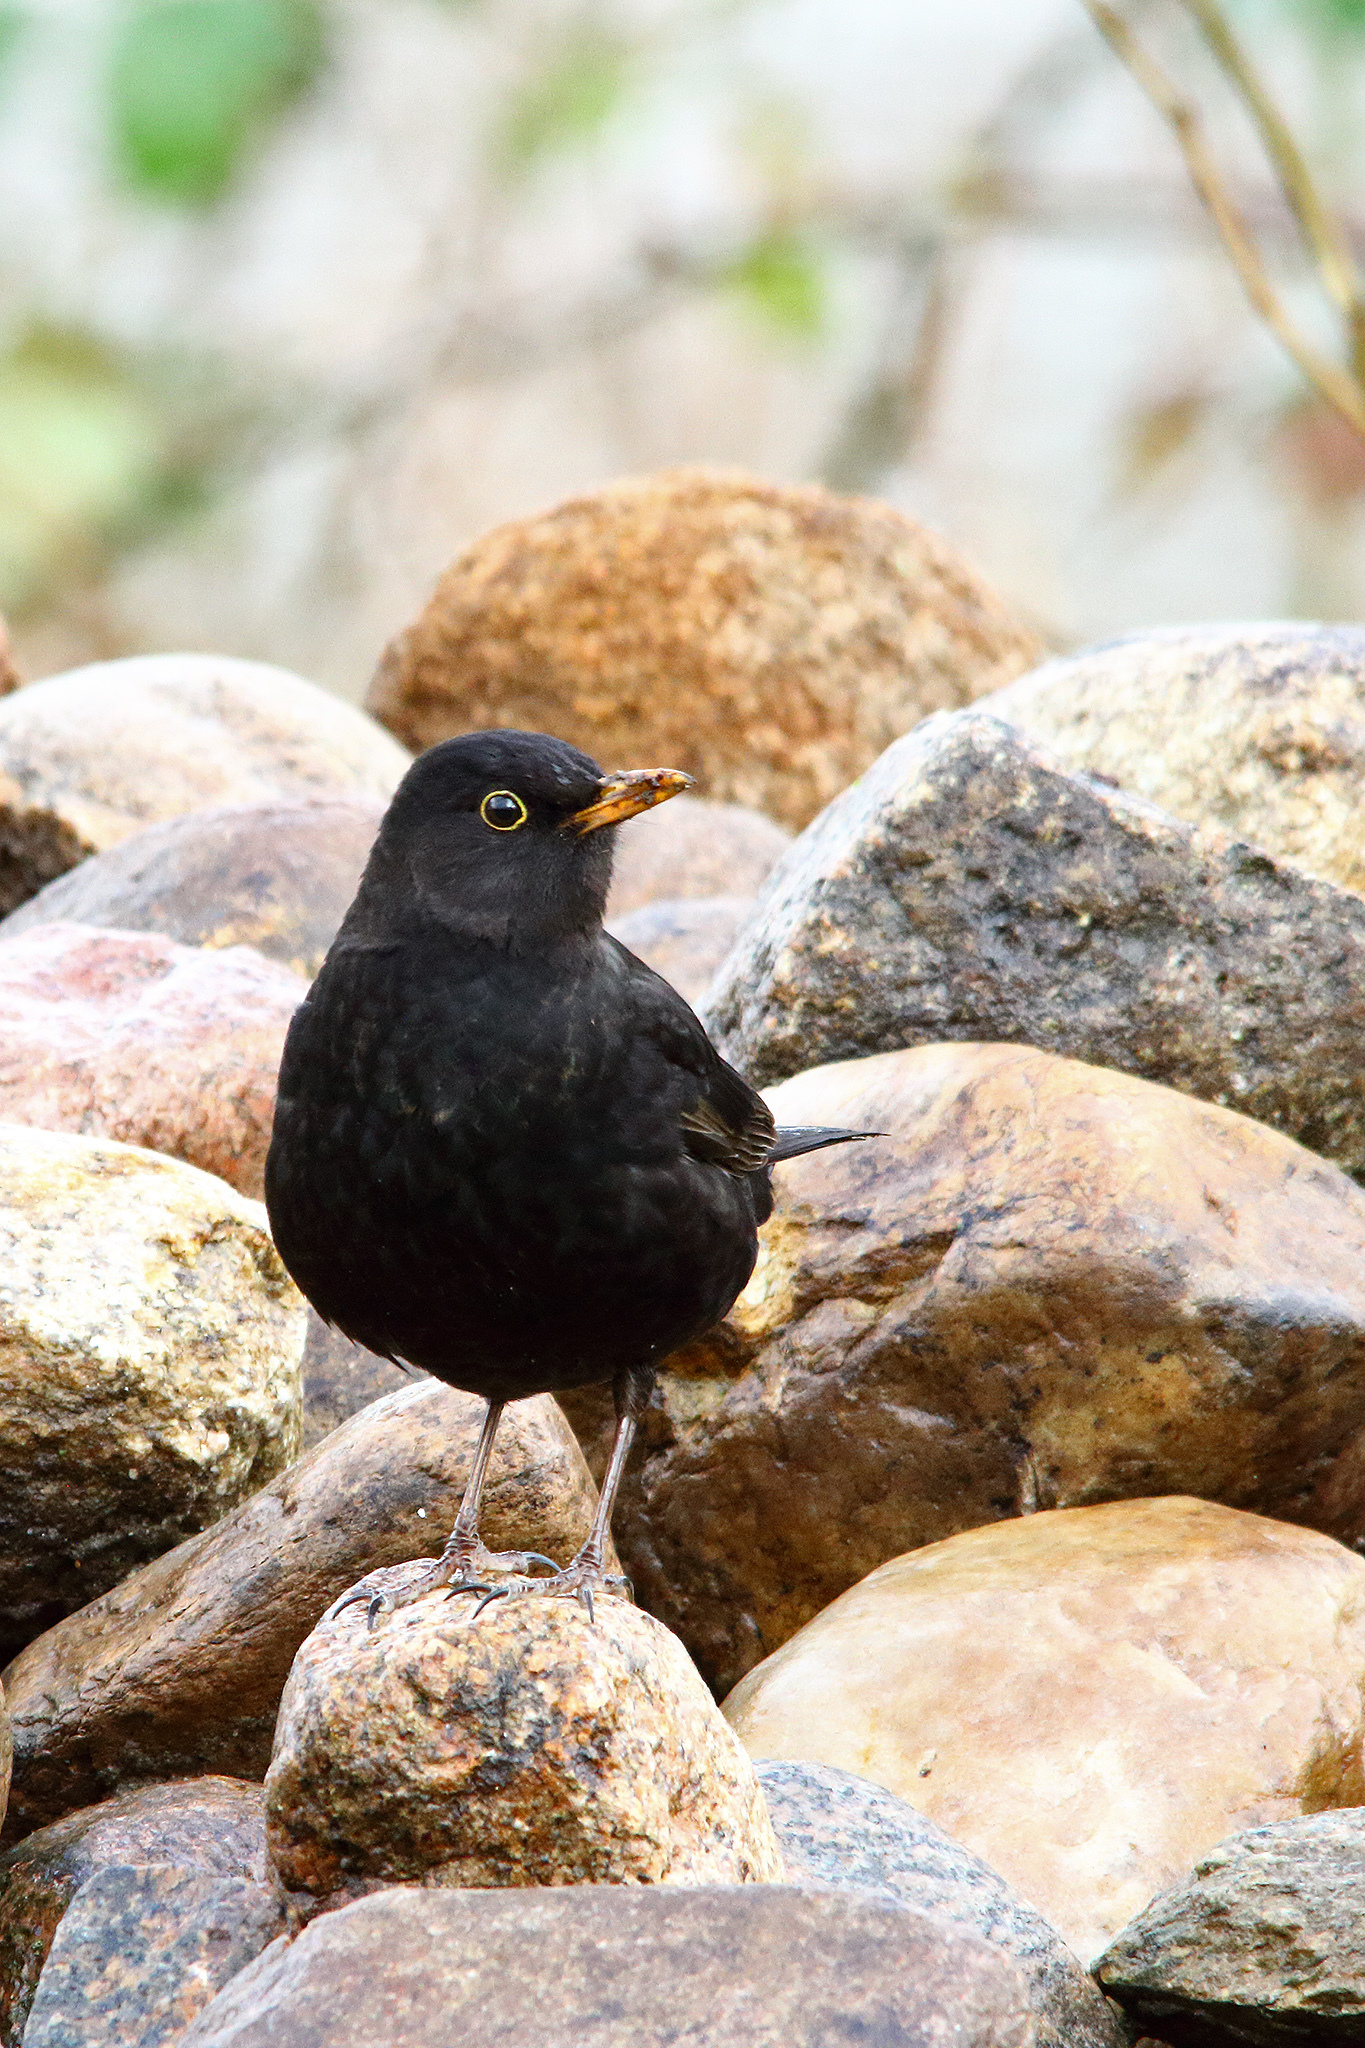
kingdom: Animalia
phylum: Chordata
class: Aves
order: Passeriformes
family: Turdidae
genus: Turdus
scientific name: Turdus merula
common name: Common blackbird
